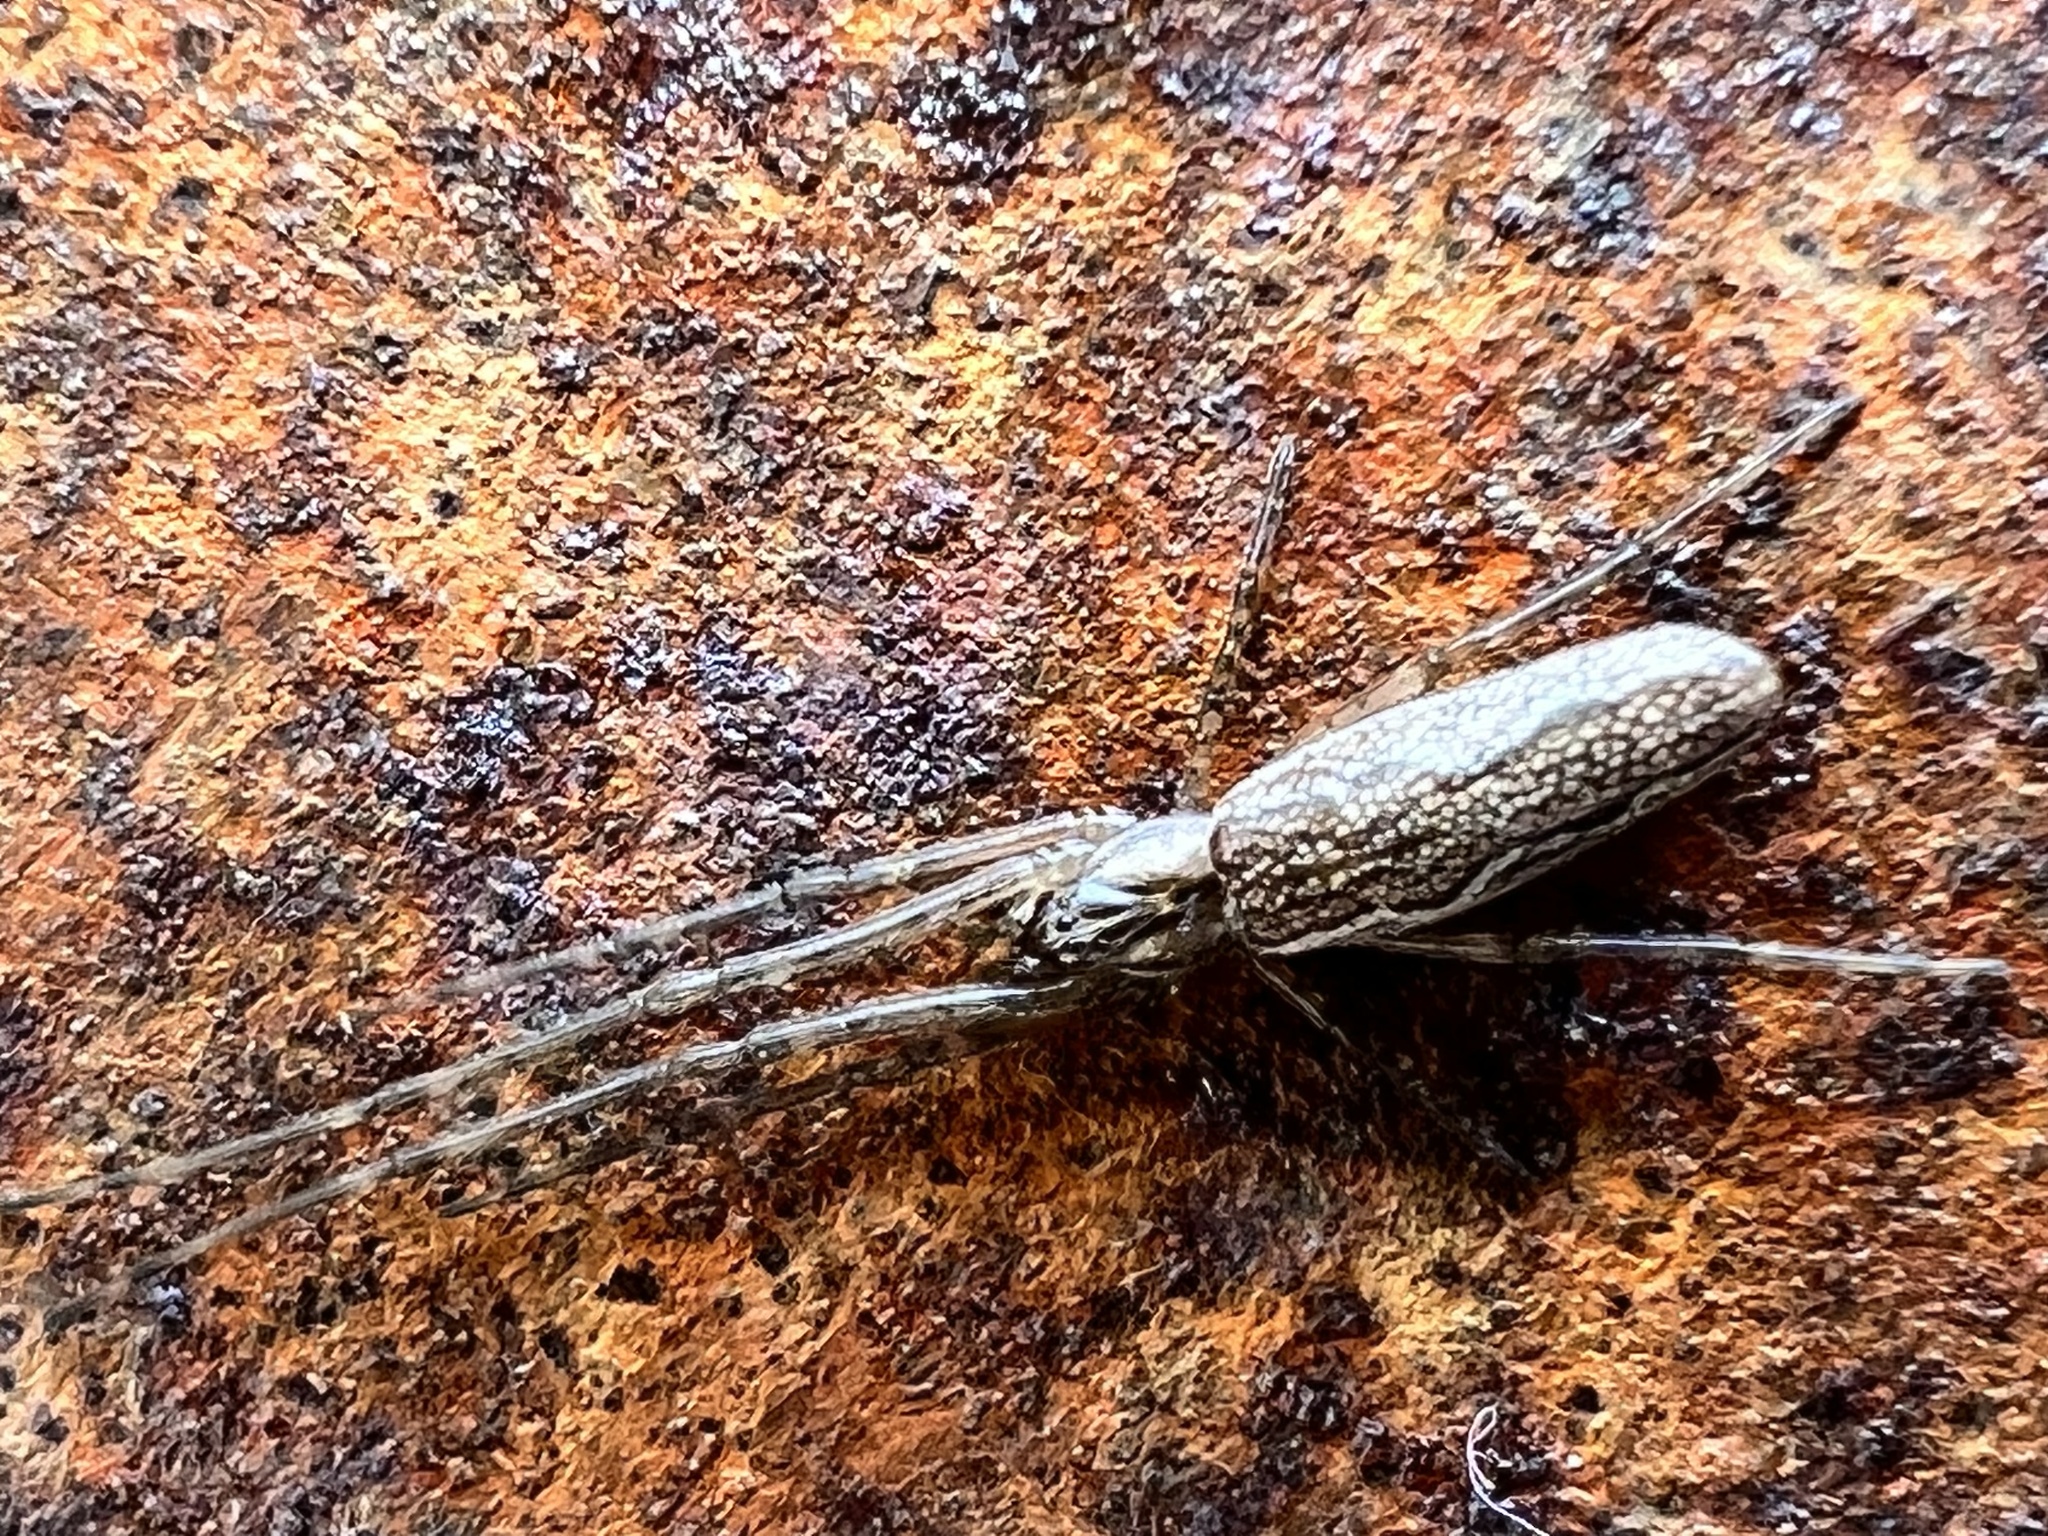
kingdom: Animalia
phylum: Arthropoda
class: Arachnida
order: Araneae
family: Tetragnathidae
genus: Tetragnatha
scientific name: Tetragnatha versicolor
